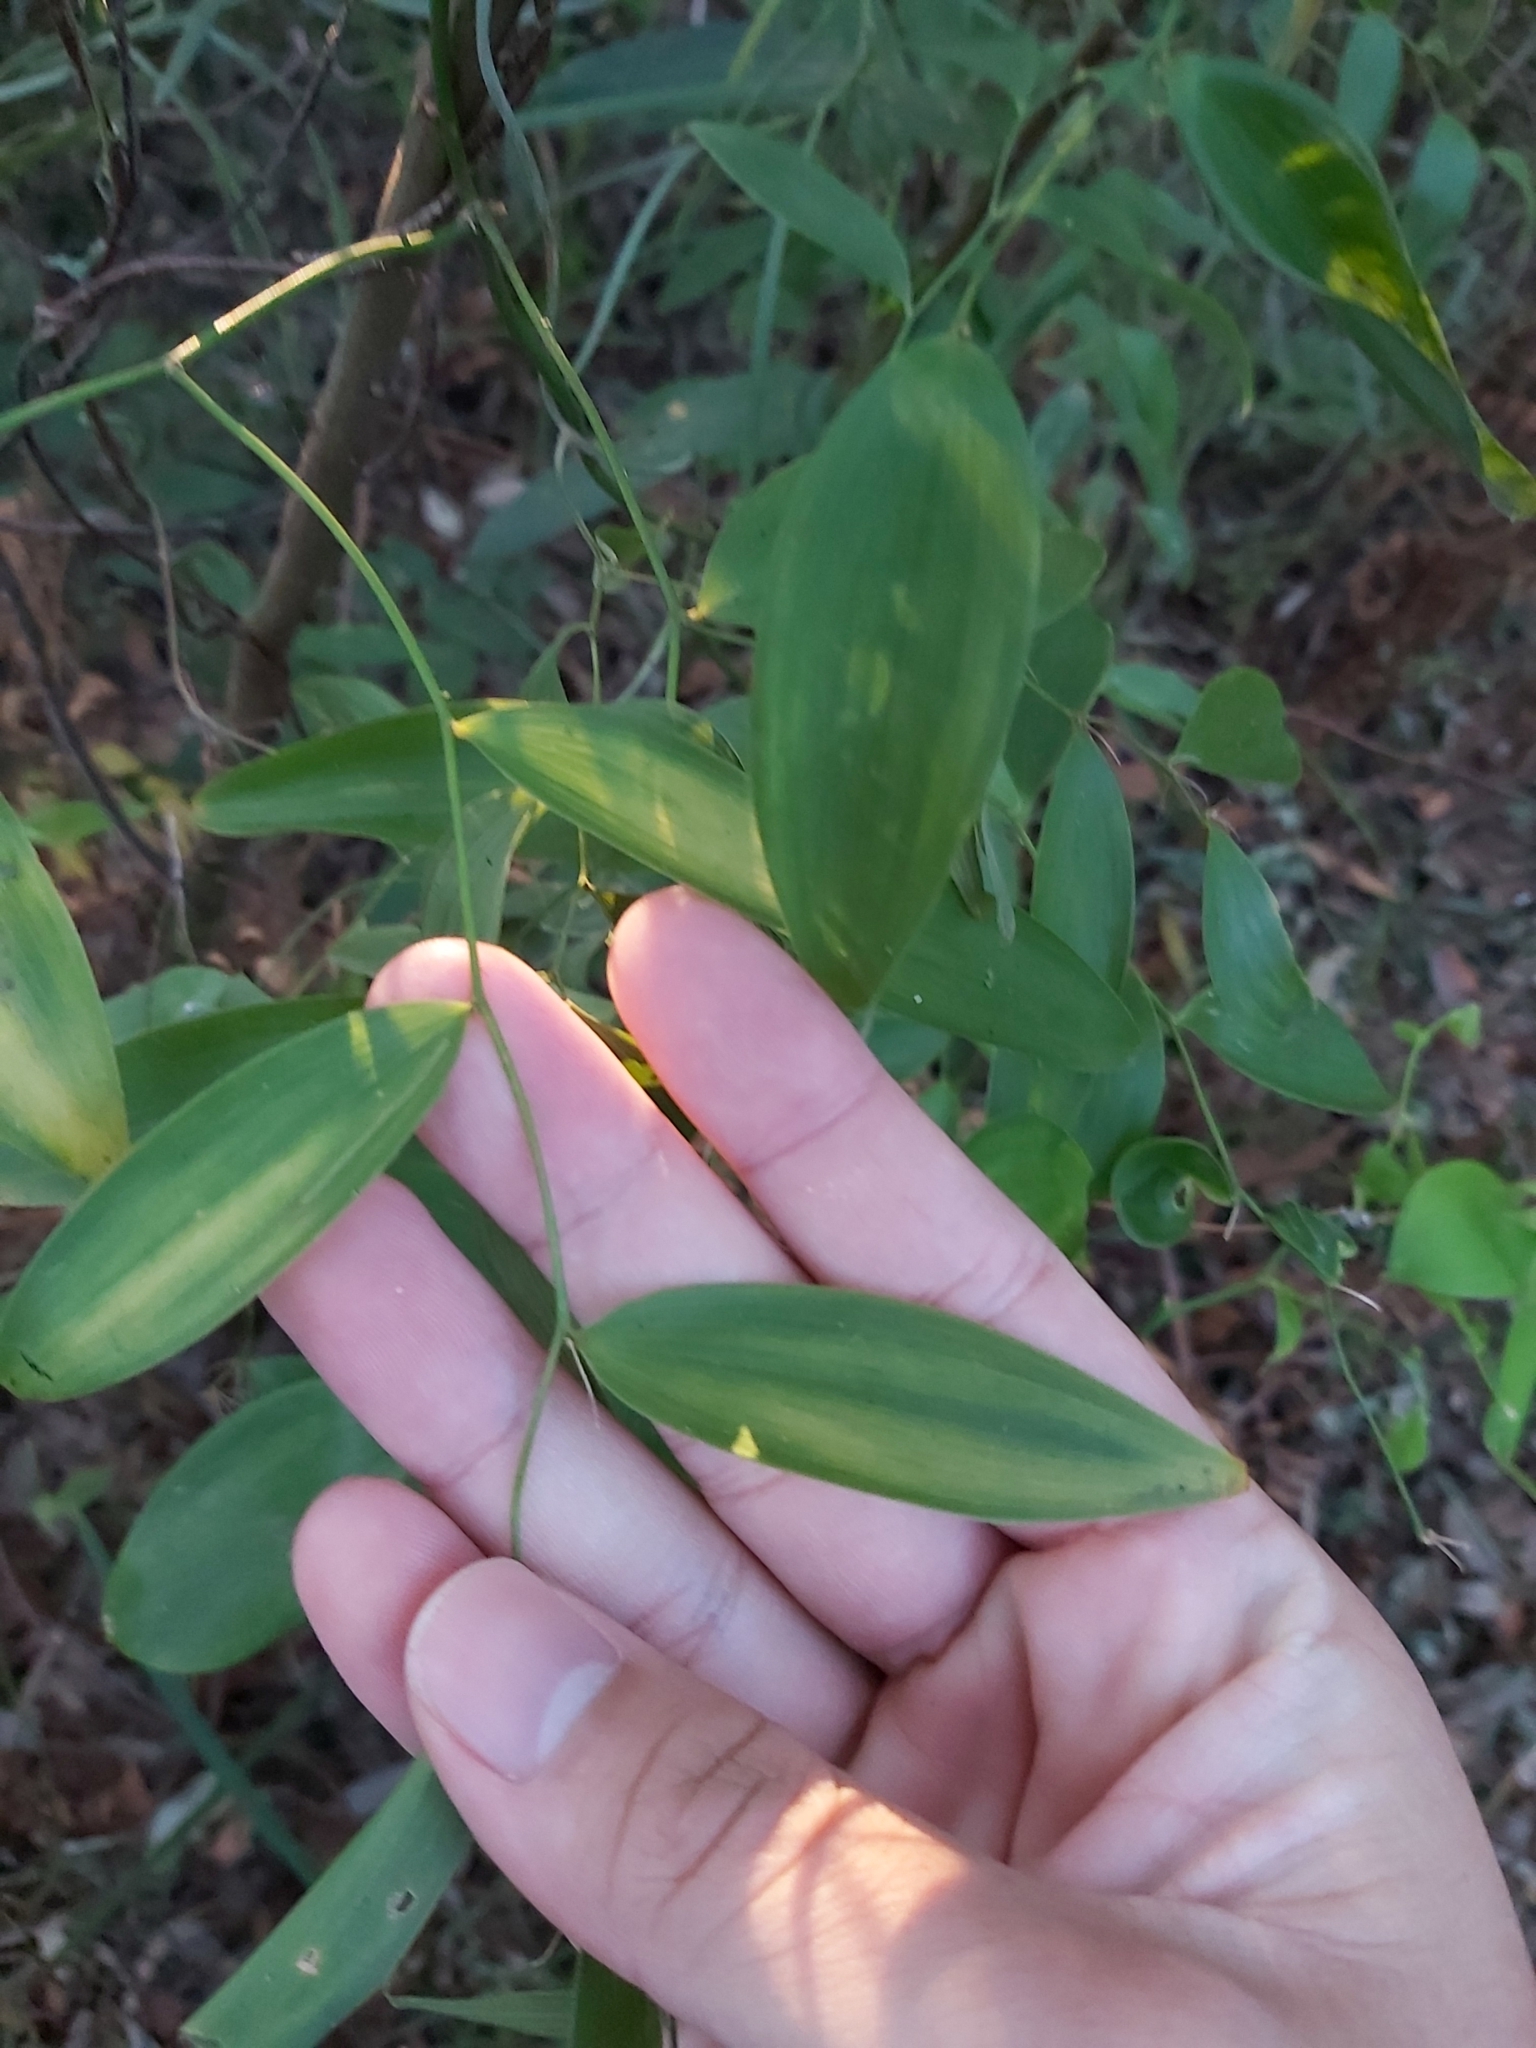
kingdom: Plantae
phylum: Tracheophyta
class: Liliopsida
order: Asparagales
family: Asparagaceae
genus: Eustrephus
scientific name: Eustrephus latifolius
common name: Orangevine
